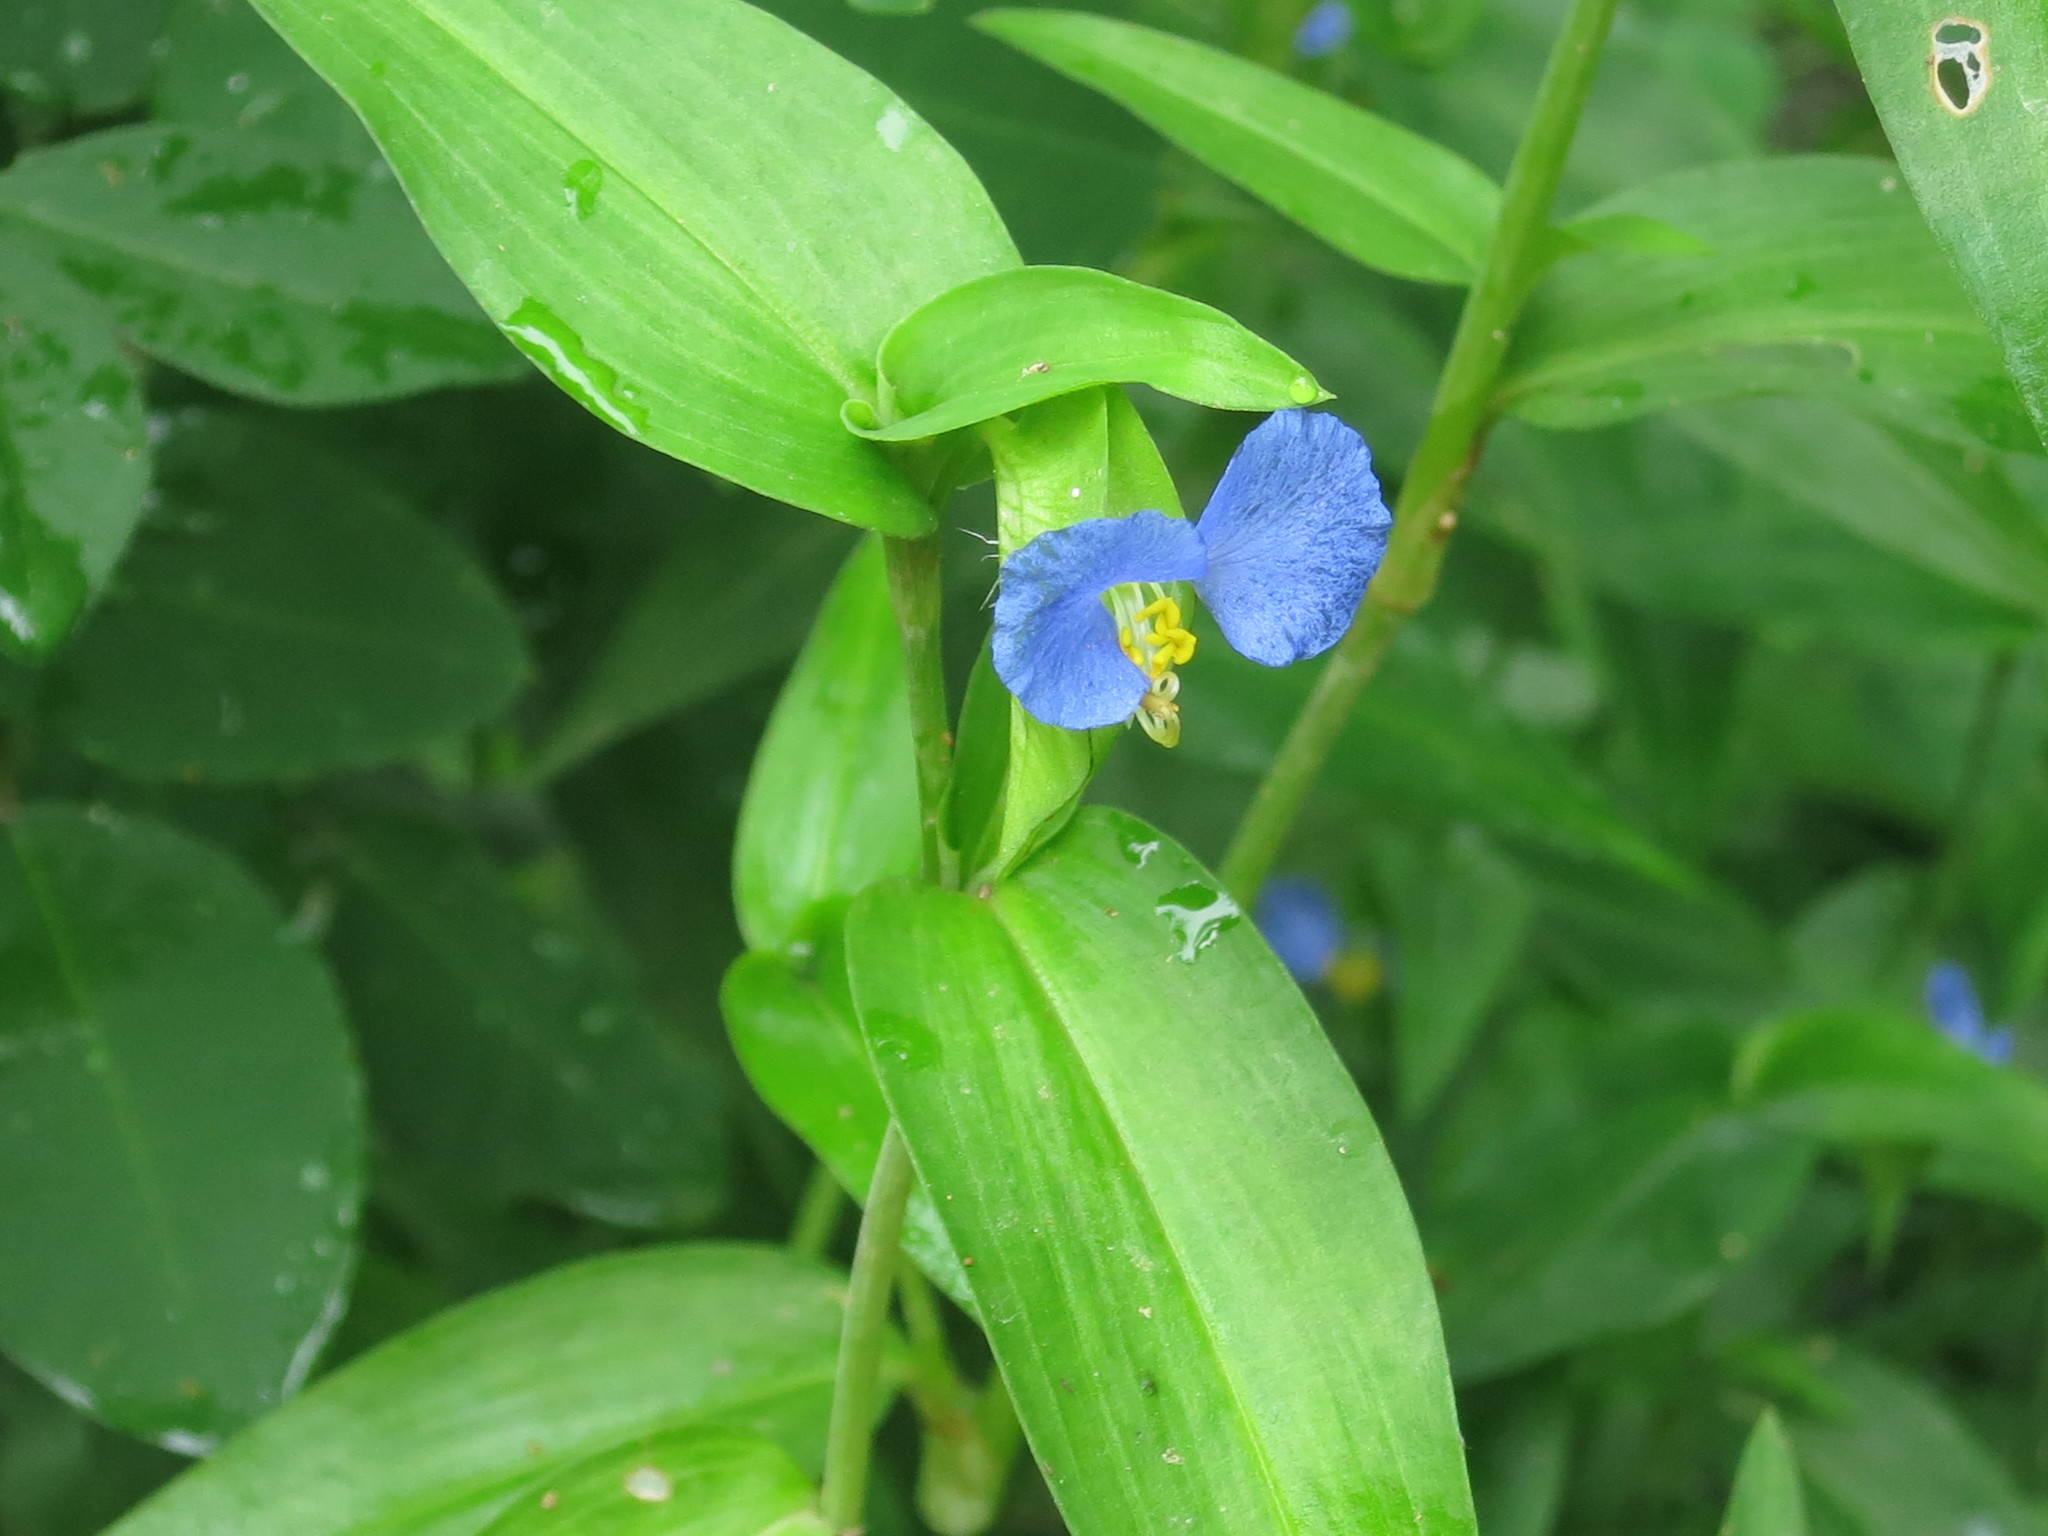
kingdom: Plantae
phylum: Tracheophyta
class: Liliopsida
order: Commelinales
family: Commelinaceae
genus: Commelina
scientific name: Commelina communis
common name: Asiatic dayflower
